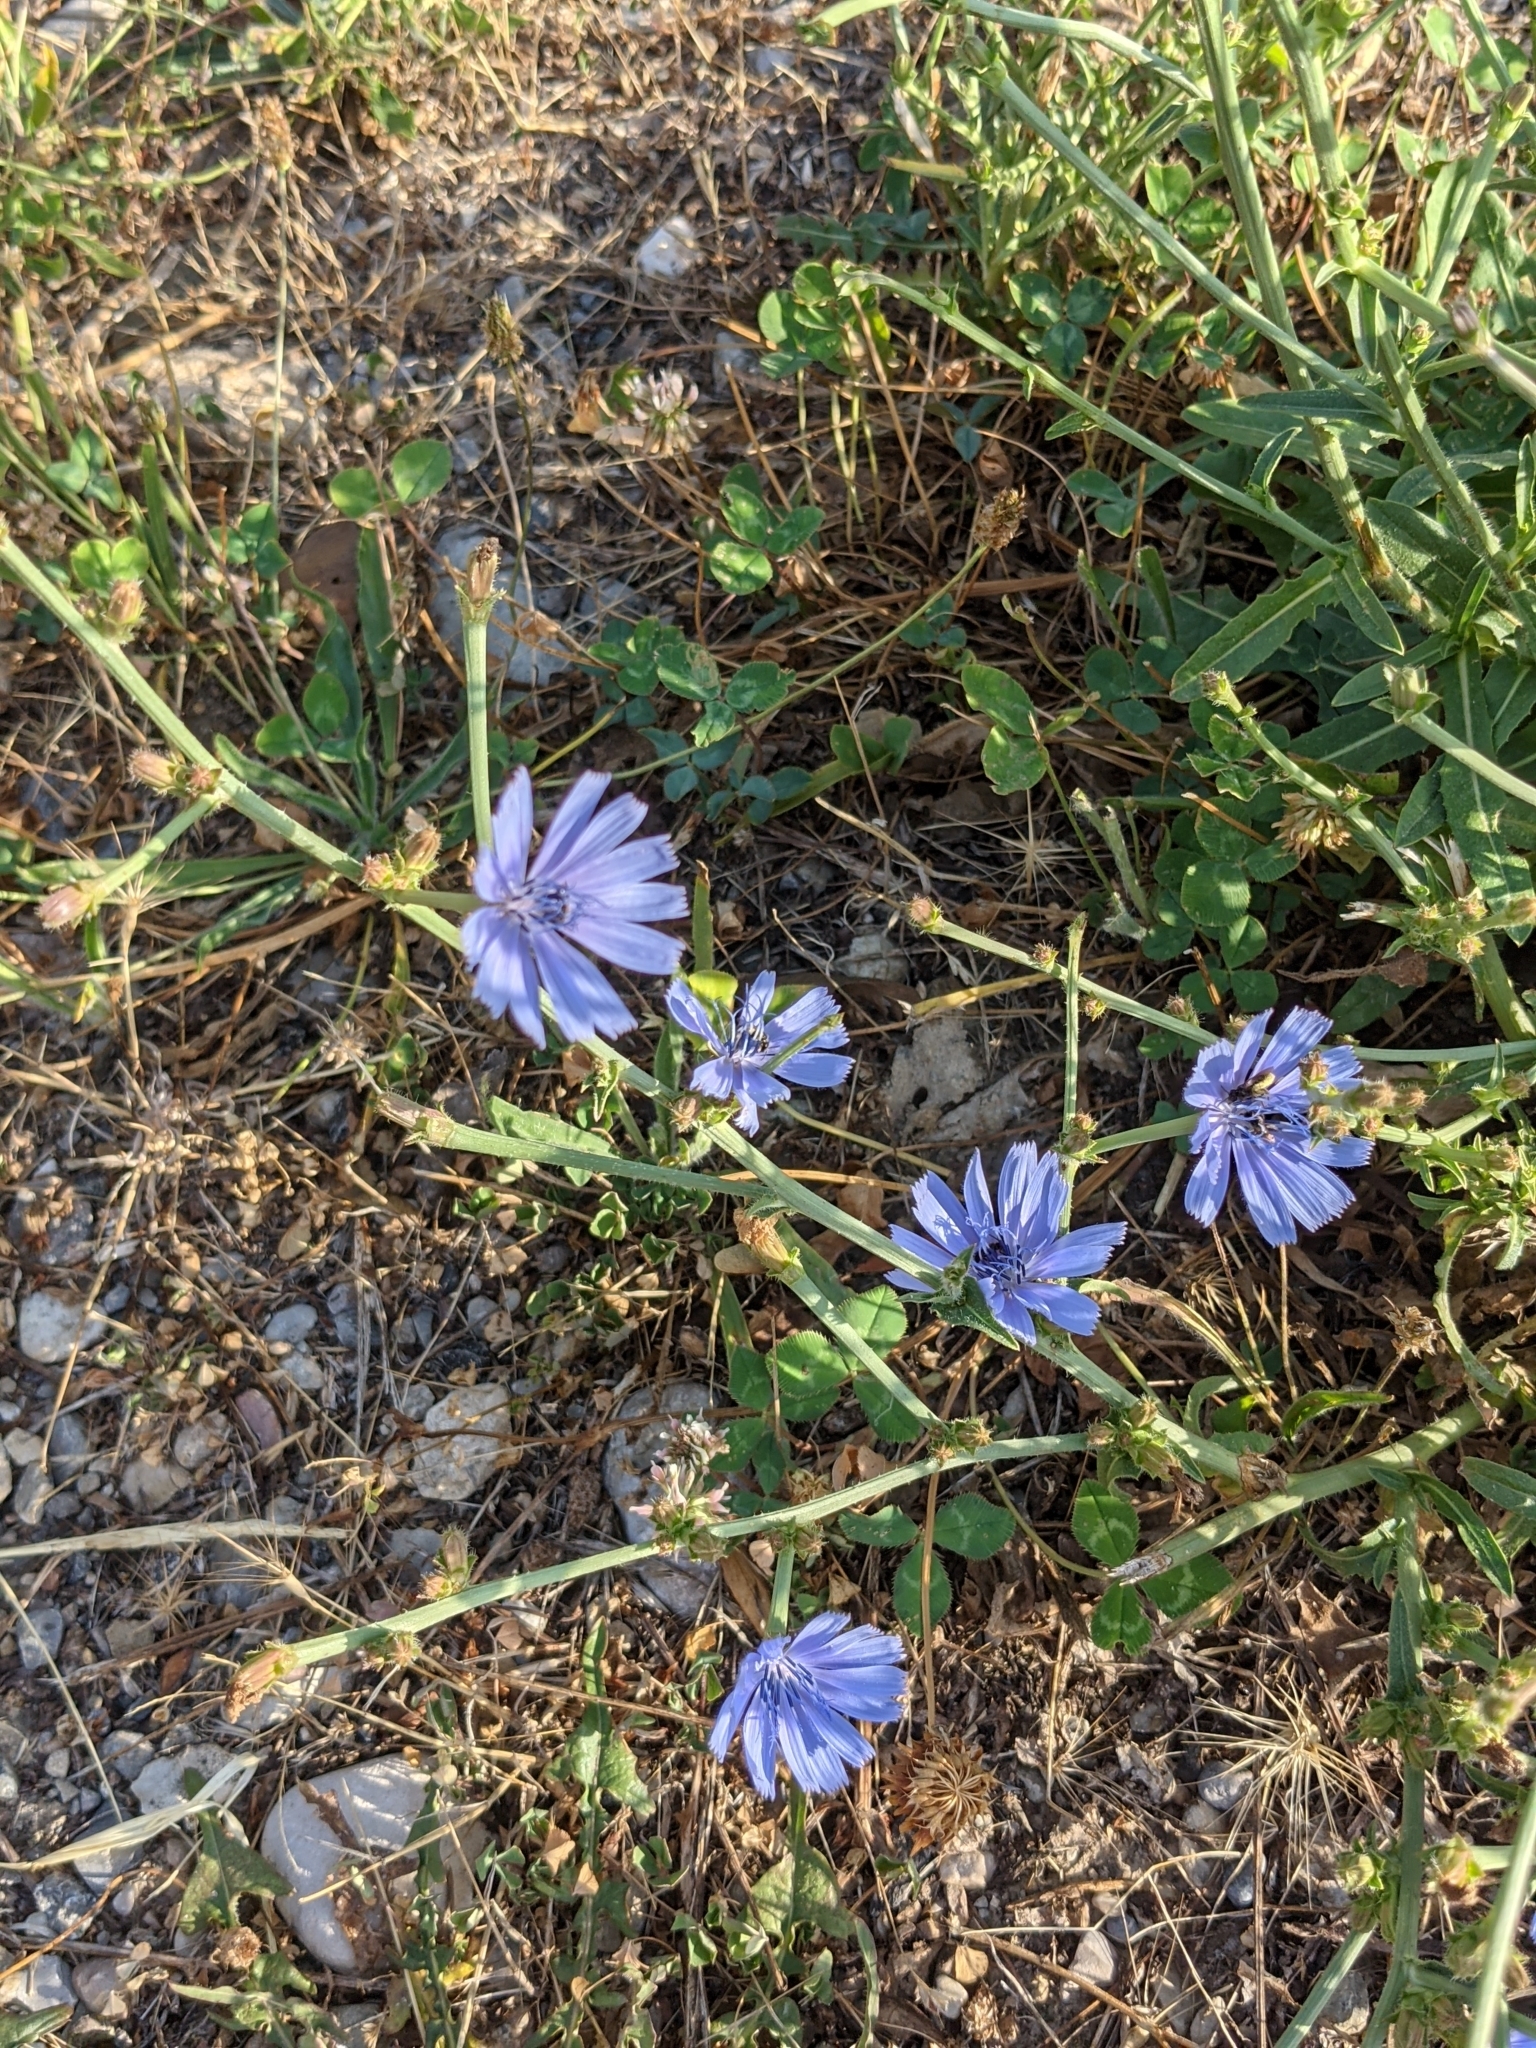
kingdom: Plantae
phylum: Tracheophyta
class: Magnoliopsida
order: Asterales
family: Asteraceae
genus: Cichorium
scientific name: Cichorium intybus
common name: Chicory
